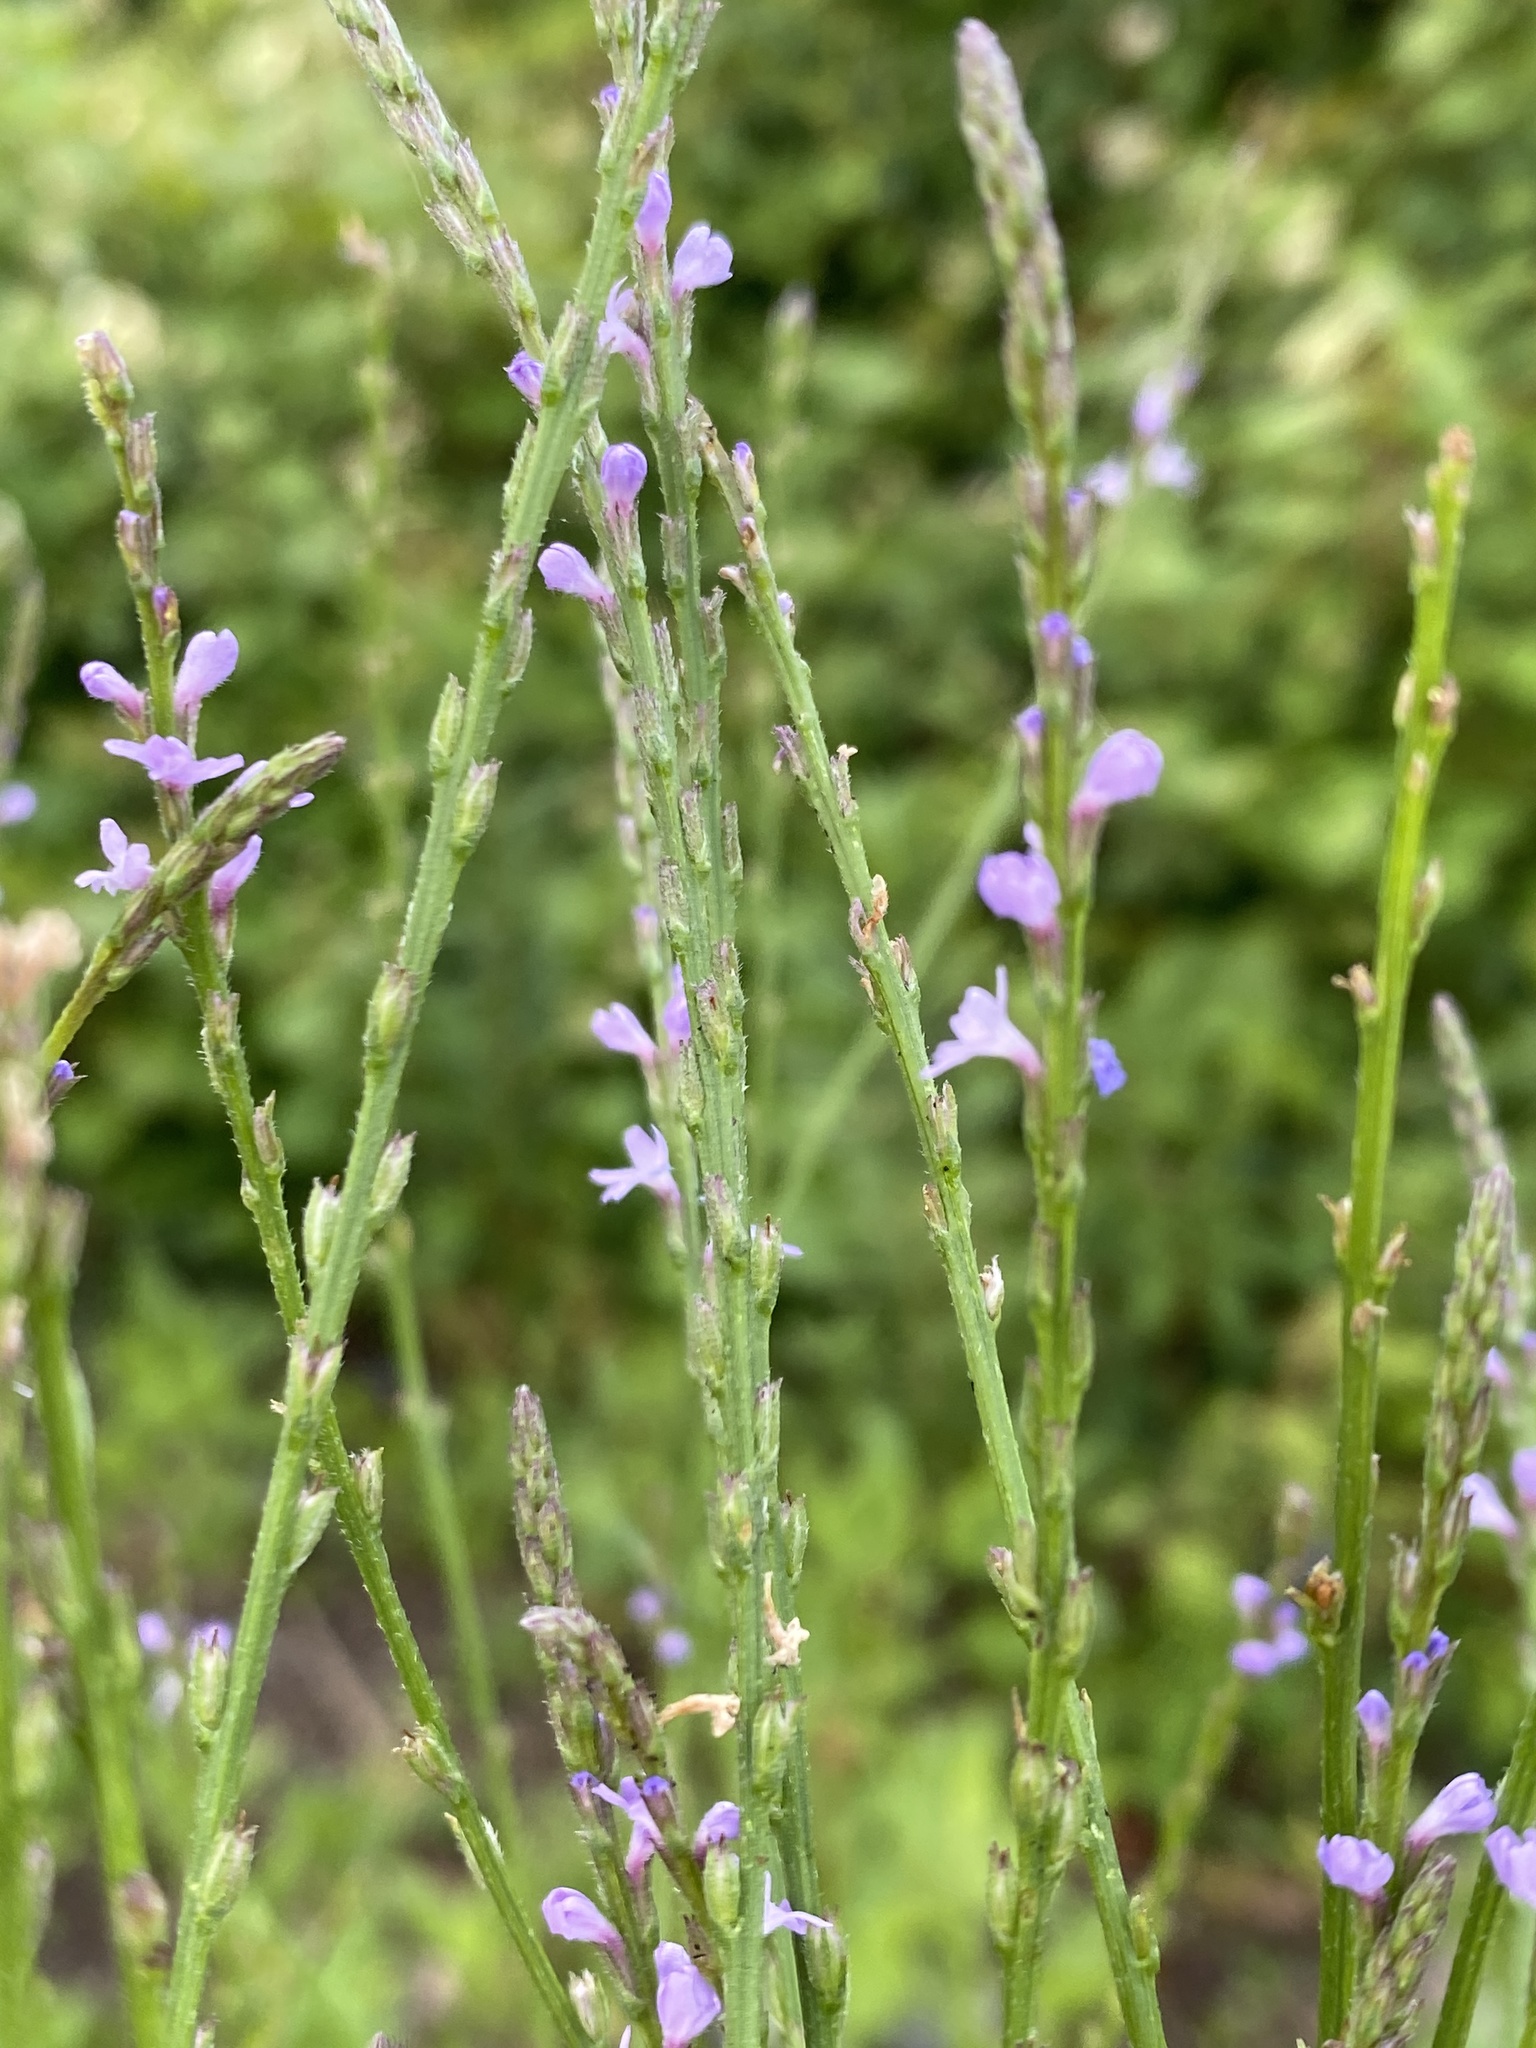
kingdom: Plantae
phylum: Tracheophyta
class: Magnoliopsida
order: Lamiales
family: Verbenaceae
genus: Verbena
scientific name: Verbena halei
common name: Texas vervain
